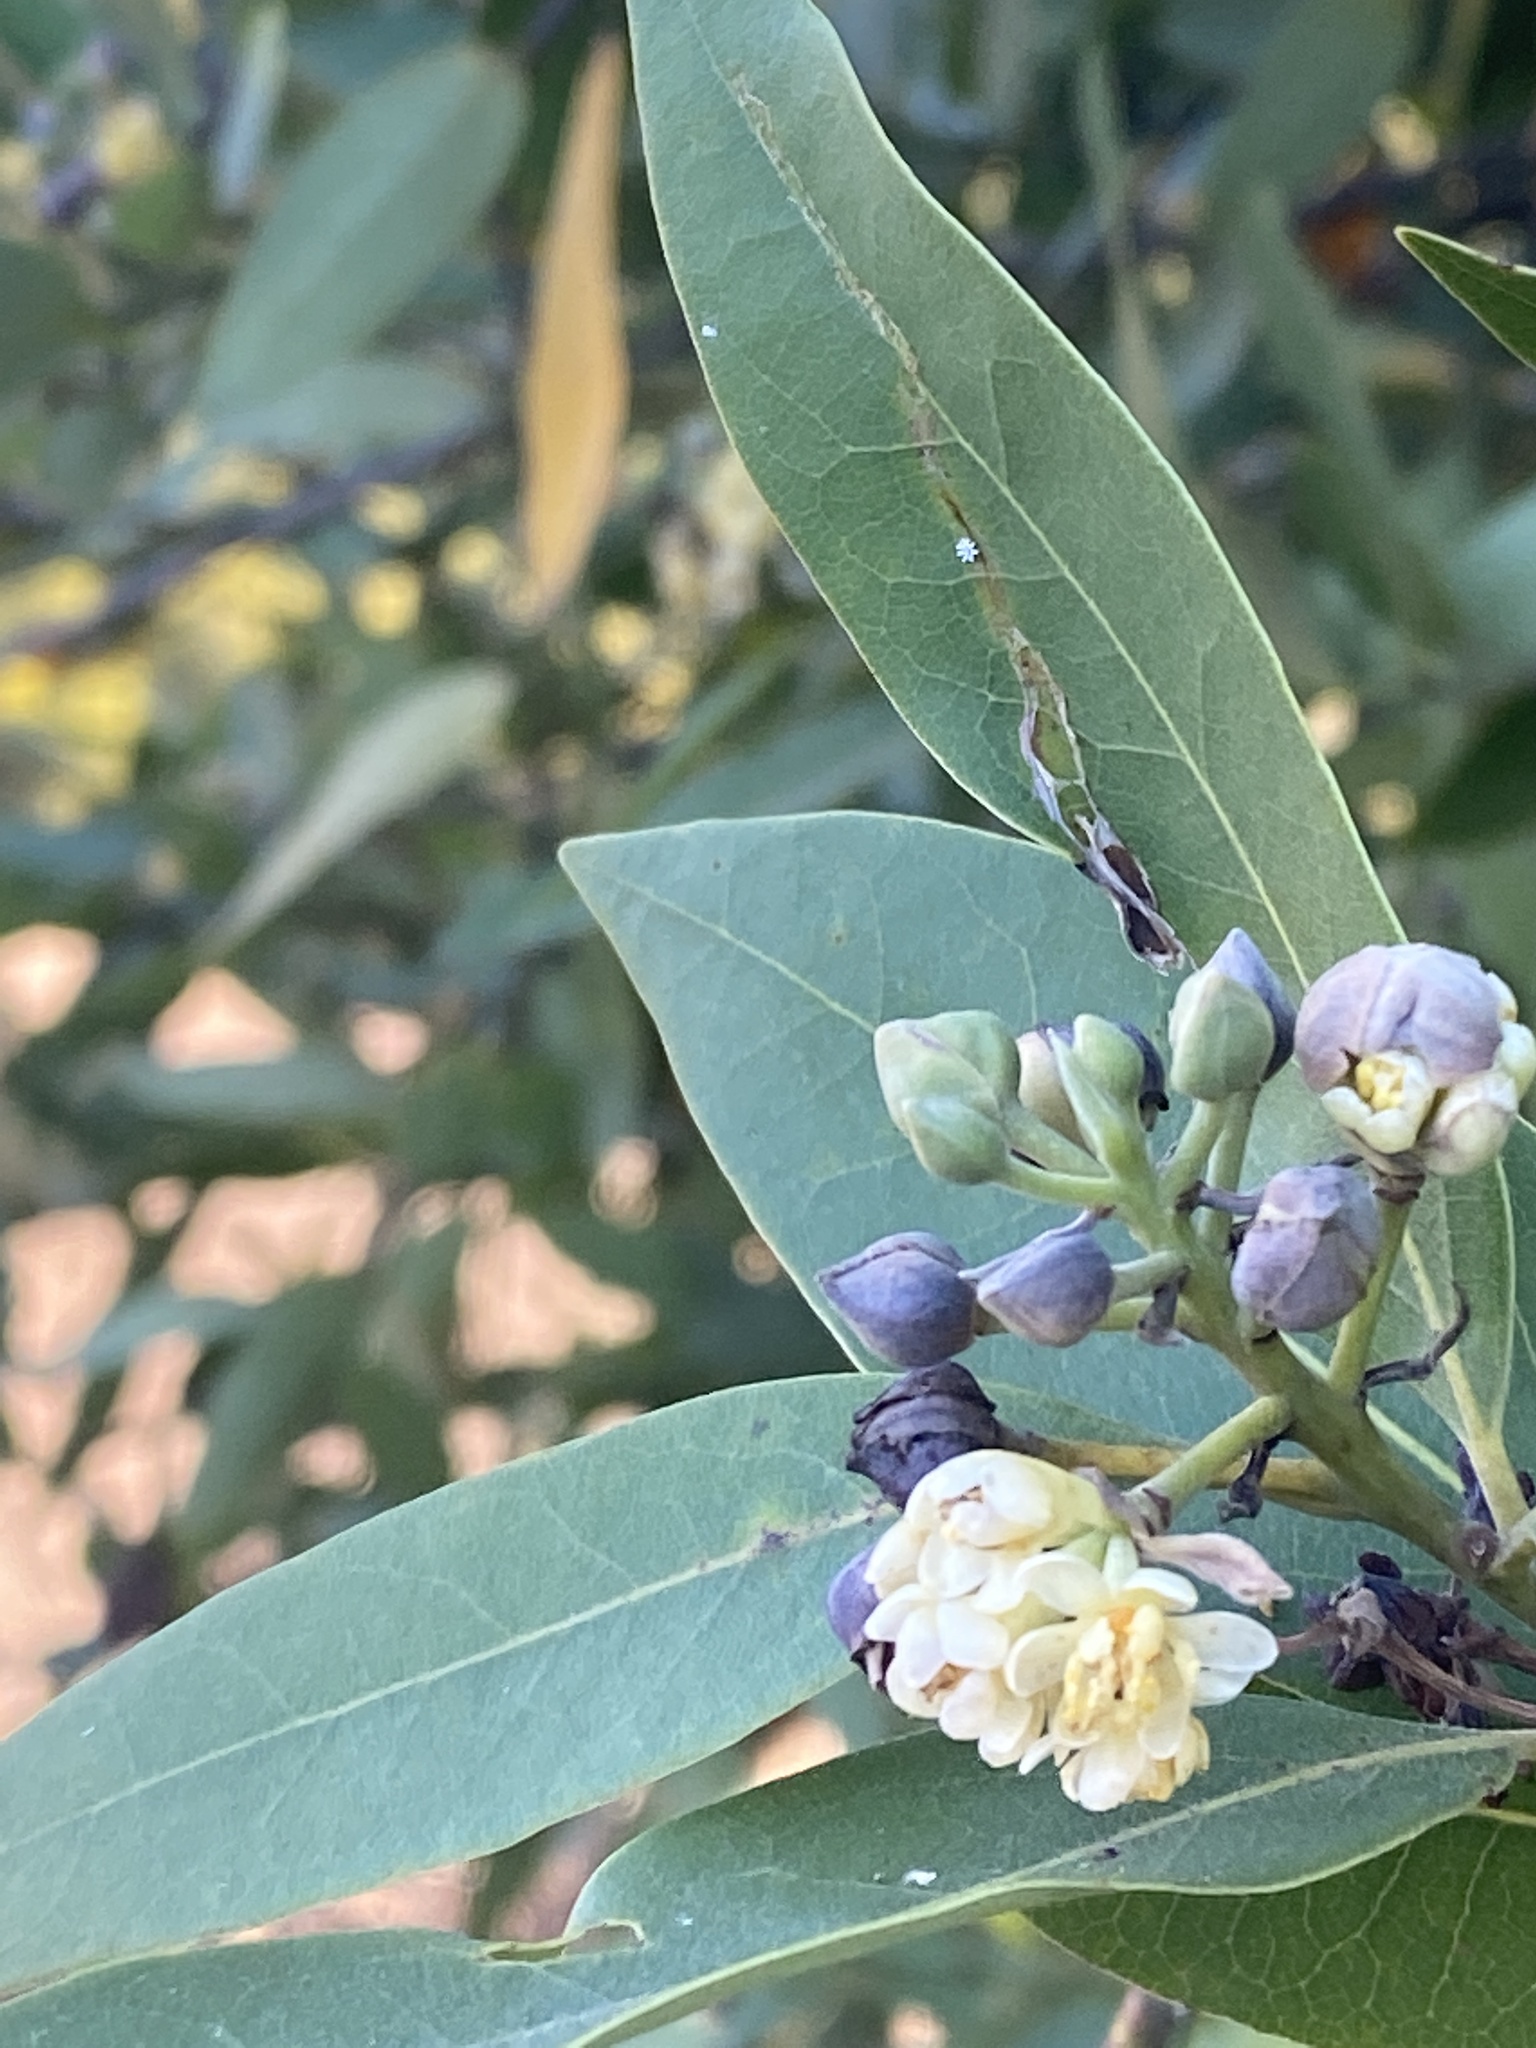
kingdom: Plantae
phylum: Tracheophyta
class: Magnoliopsida
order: Laurales
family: Lauraceae
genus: Umbellularia
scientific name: Umbellularia californica
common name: California bay
